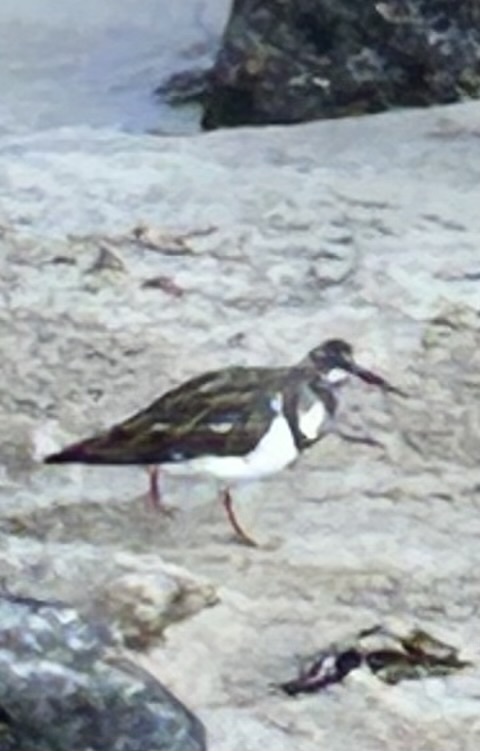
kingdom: Animalia
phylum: Chordata
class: Aves
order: Charadriiformes
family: Scolopacidae
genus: Arenaria
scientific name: Arenaria interpres
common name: Ruddy turnstone
